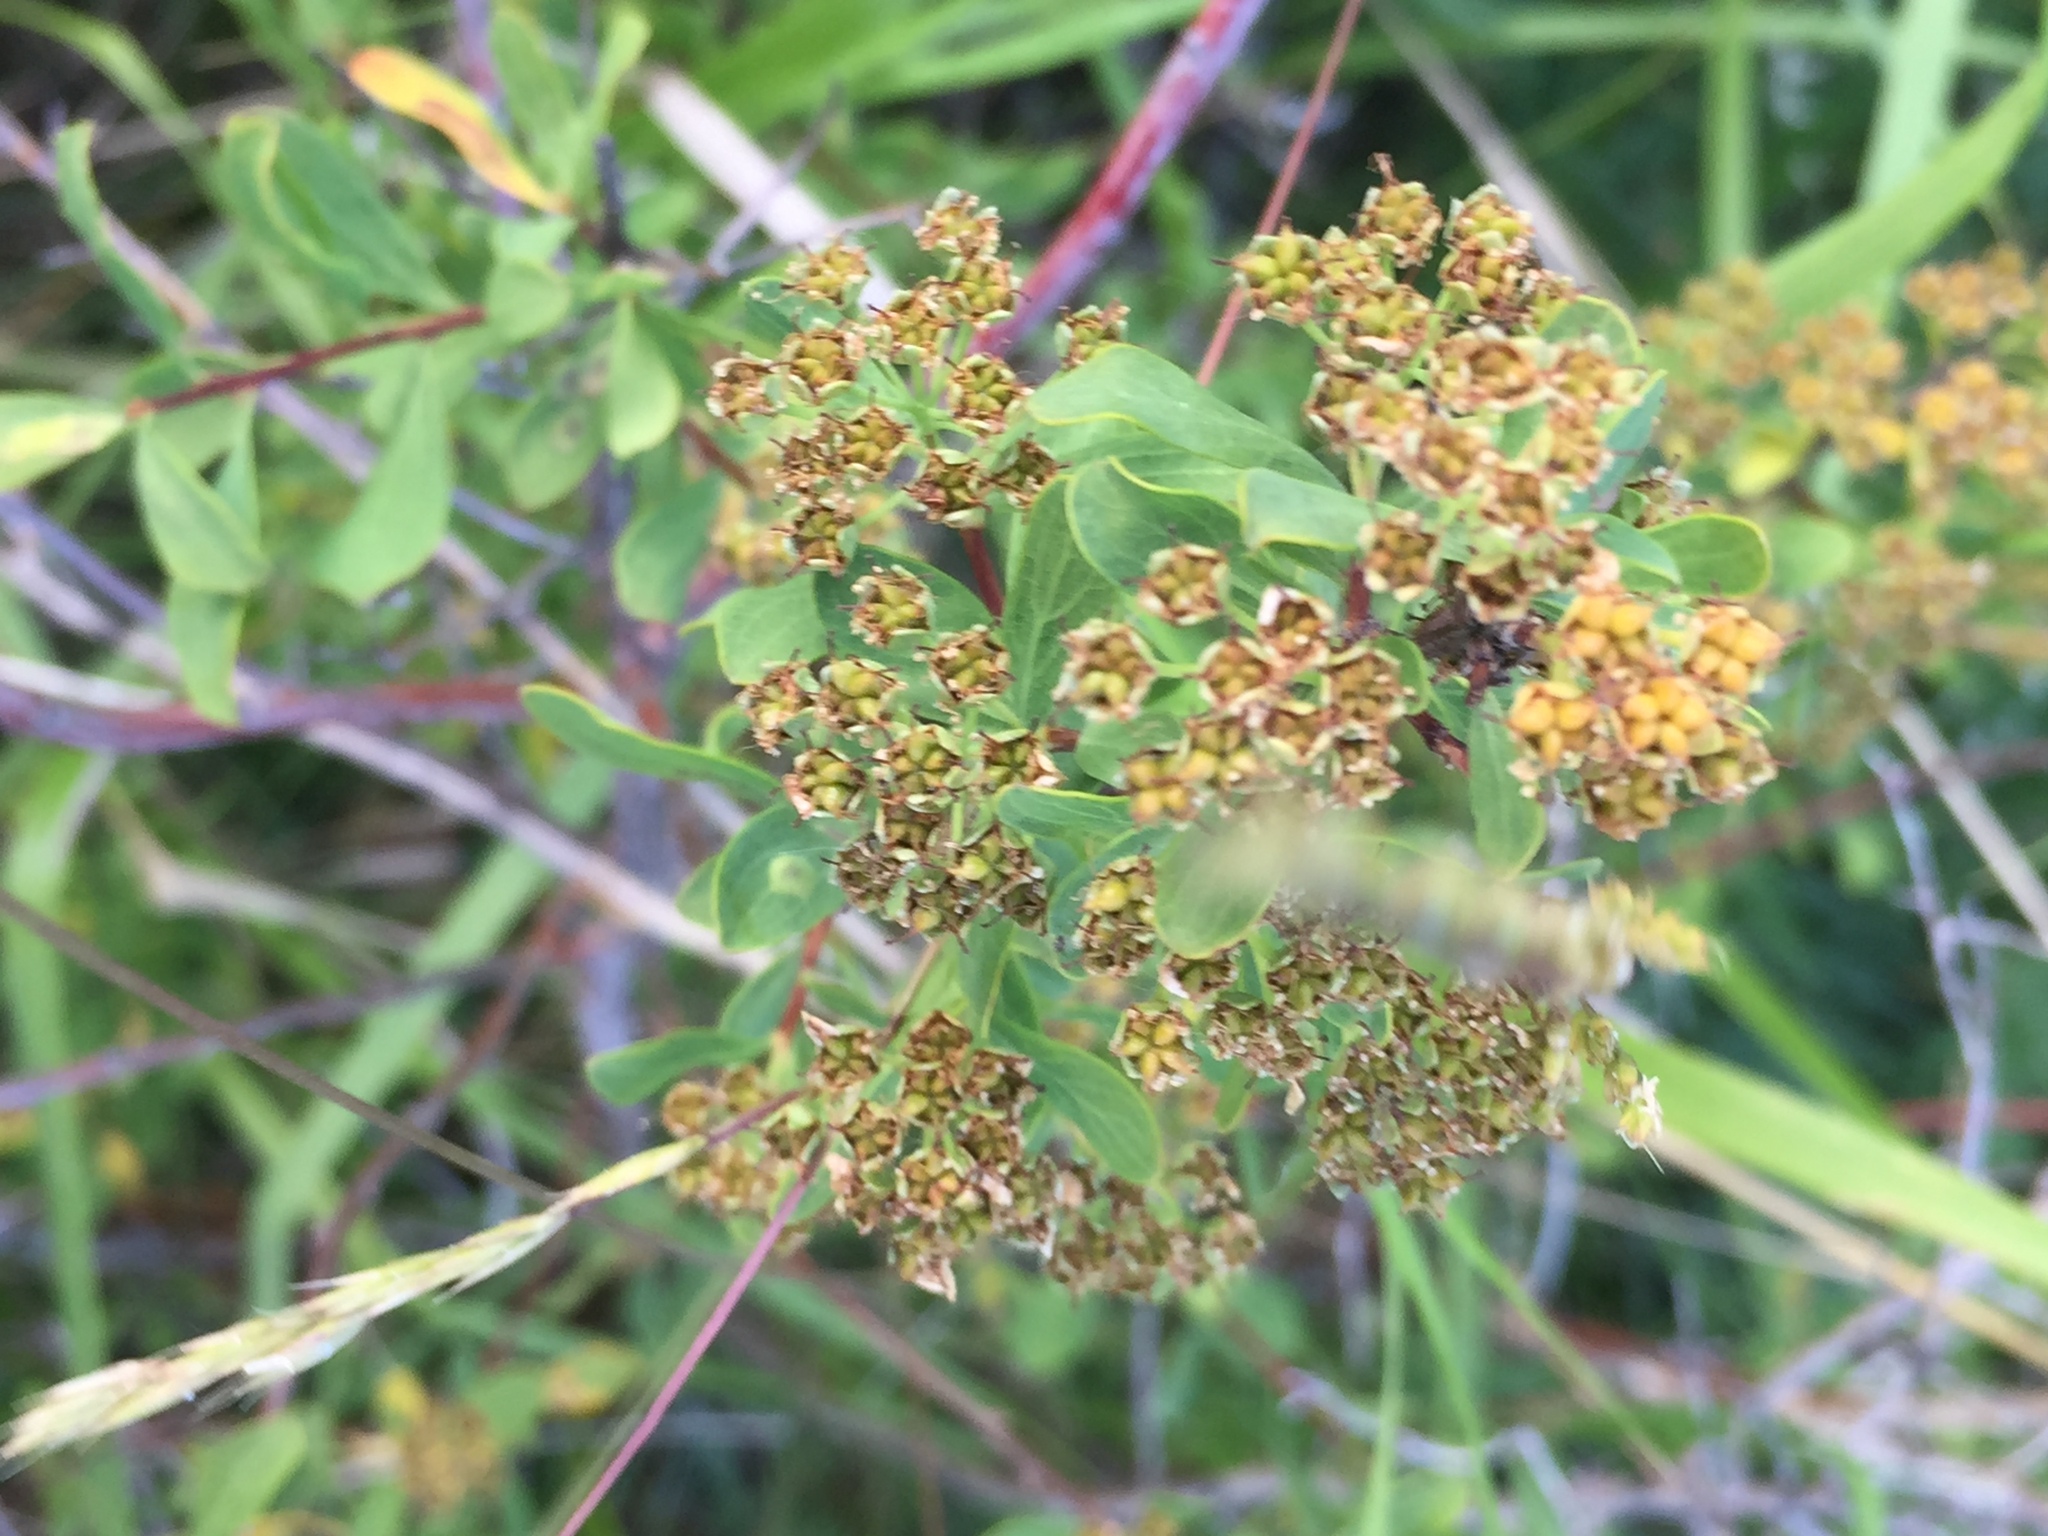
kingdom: Plantae
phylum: Tracheophyta
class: Magnoliopsida
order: Rosales
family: Rosaceae
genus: Spiraea
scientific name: Spiraea crenata
